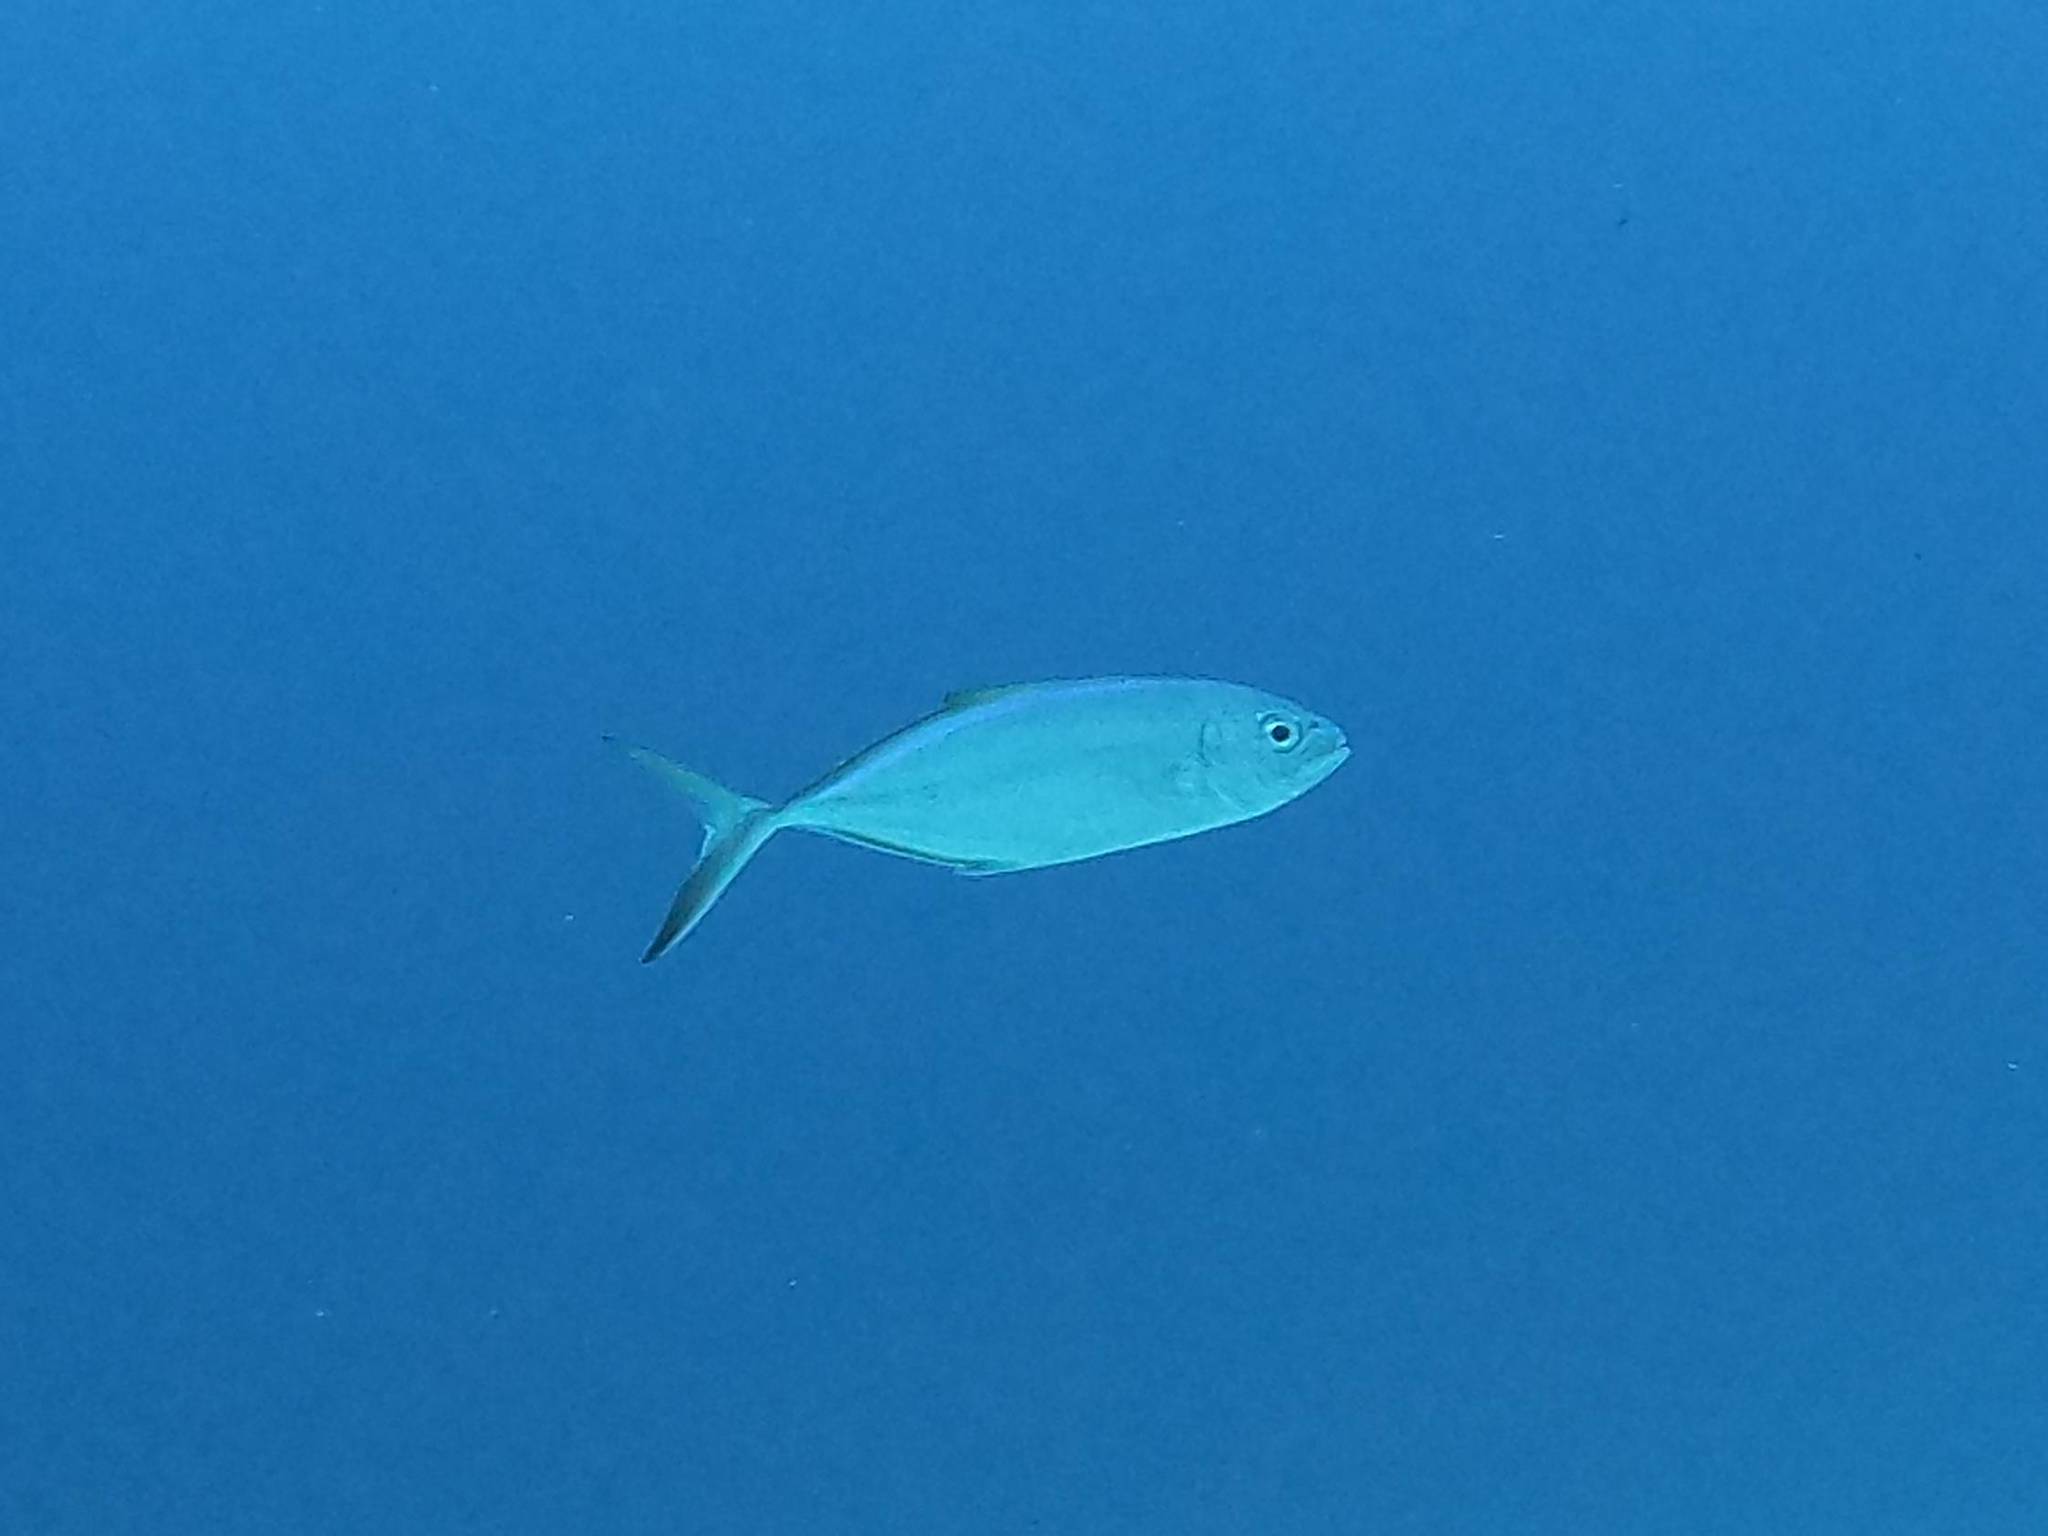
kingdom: Animalia
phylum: Chordata
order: Perciformes
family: Carangidae
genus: Caranx
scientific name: Caranx ruber
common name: Bar jack
